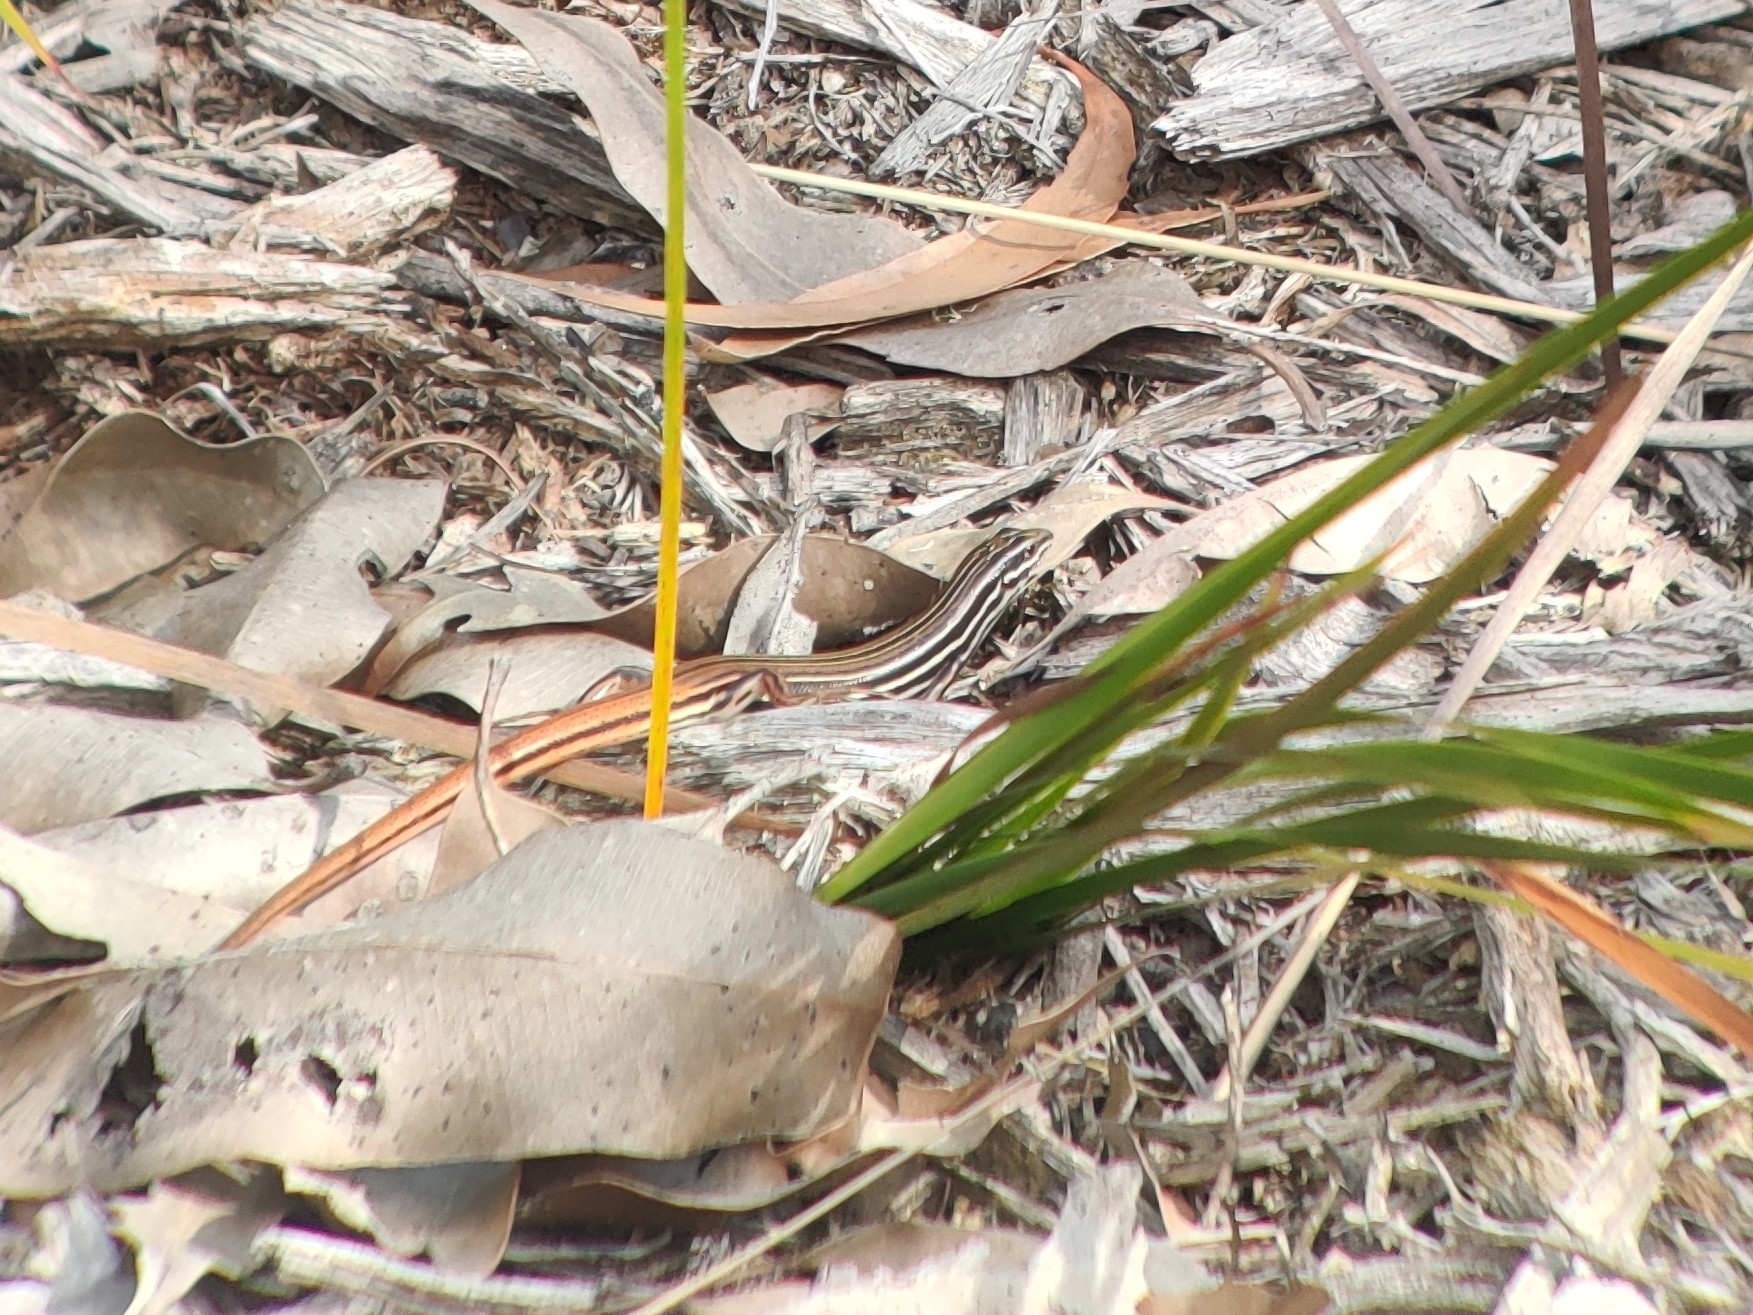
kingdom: Animalia
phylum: Chordata
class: Squamata
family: Scincidae
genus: Ctenotus
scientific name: Ctenotus taeniolatus
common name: Copper-tailed skink
